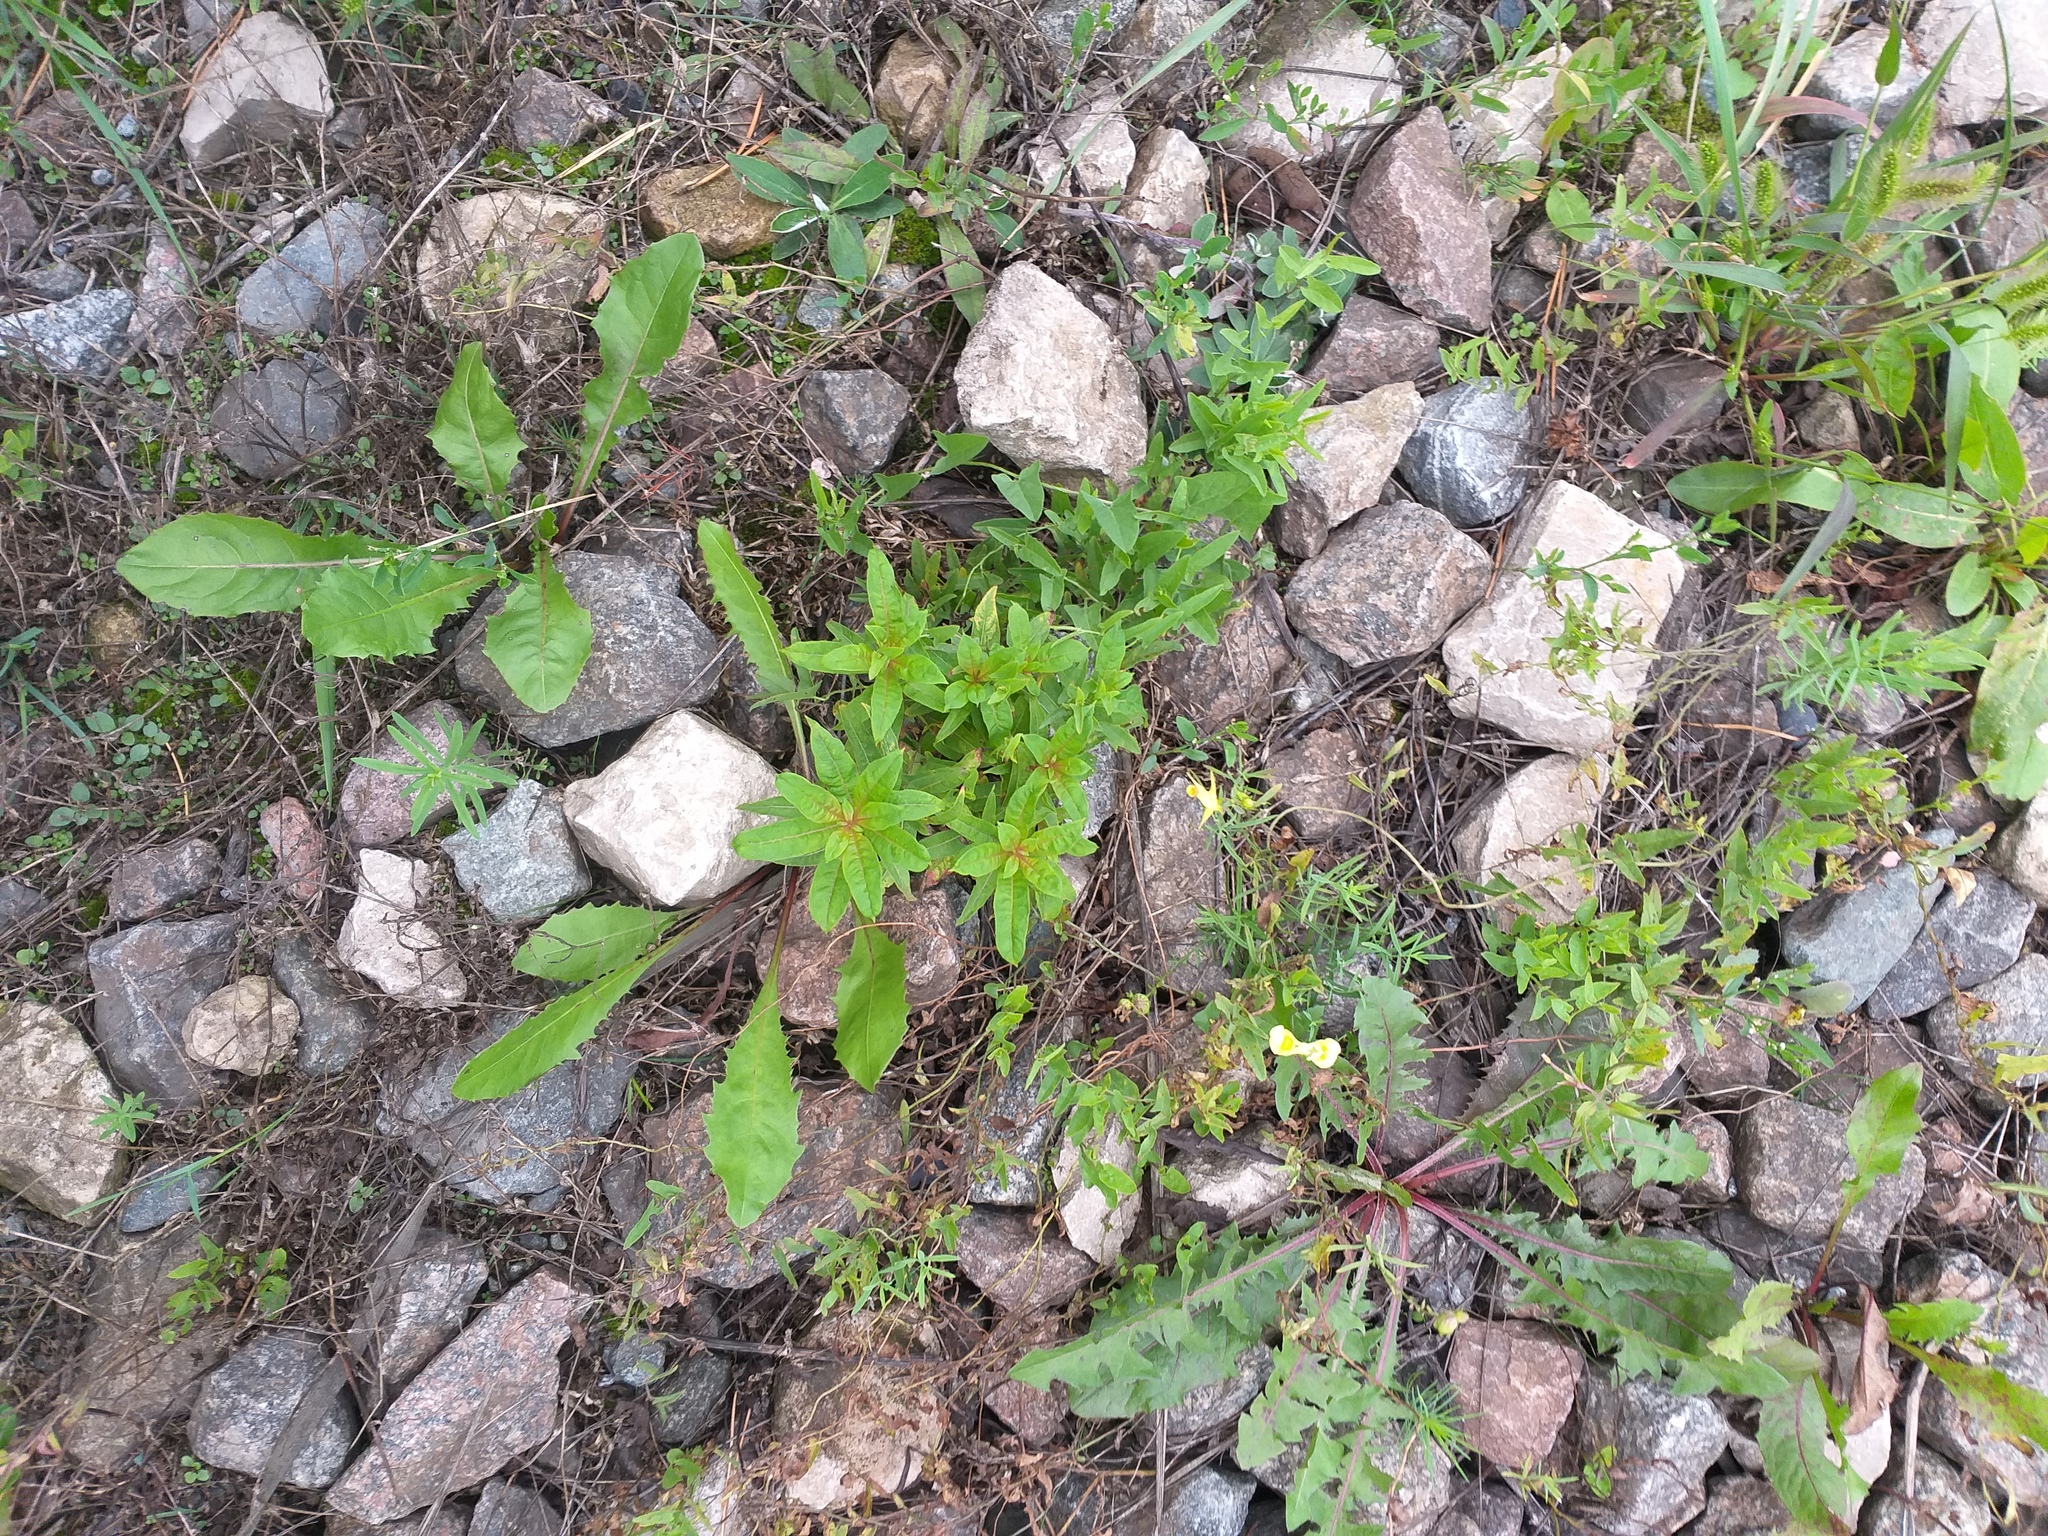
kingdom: Plantae
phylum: Tracheophyta
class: Magnoliopsida
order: Myrtales
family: Onagraceae
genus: Chamaenerion
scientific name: Chamaenerion angustifolium
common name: Fireweed
